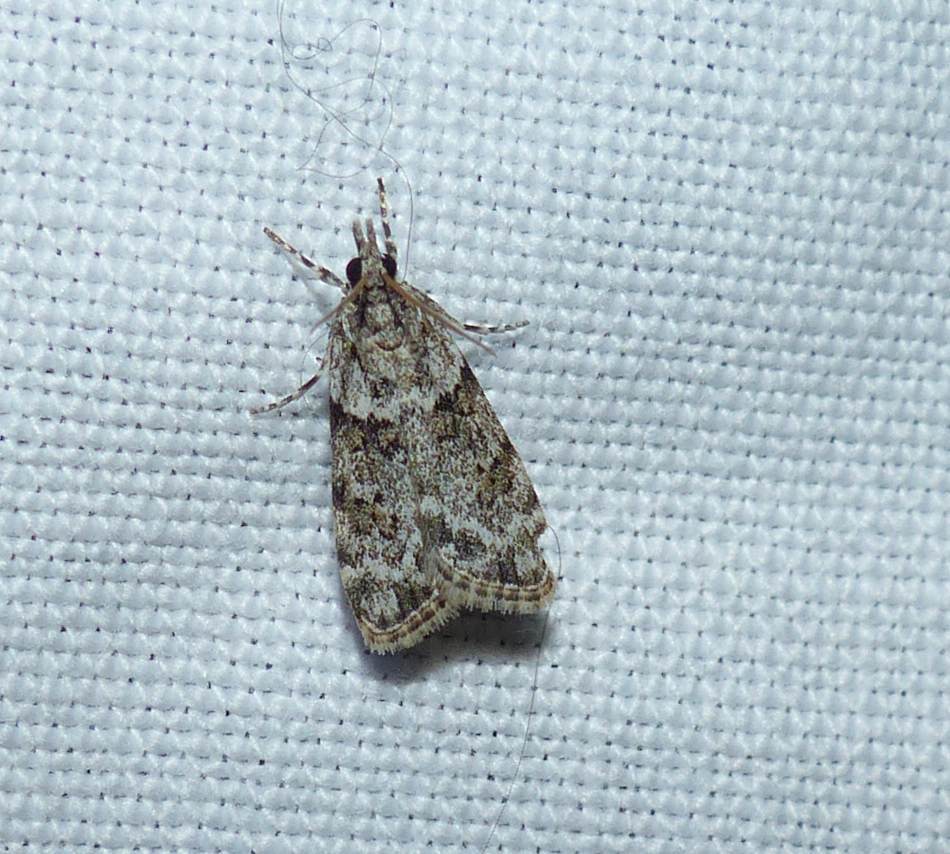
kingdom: Animalia
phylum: Arthropoda
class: Insecta
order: Lepidoptera
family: Crambidae
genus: Scoparia
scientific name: Scoparia biplagialis
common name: Double-striped scoparia moth
